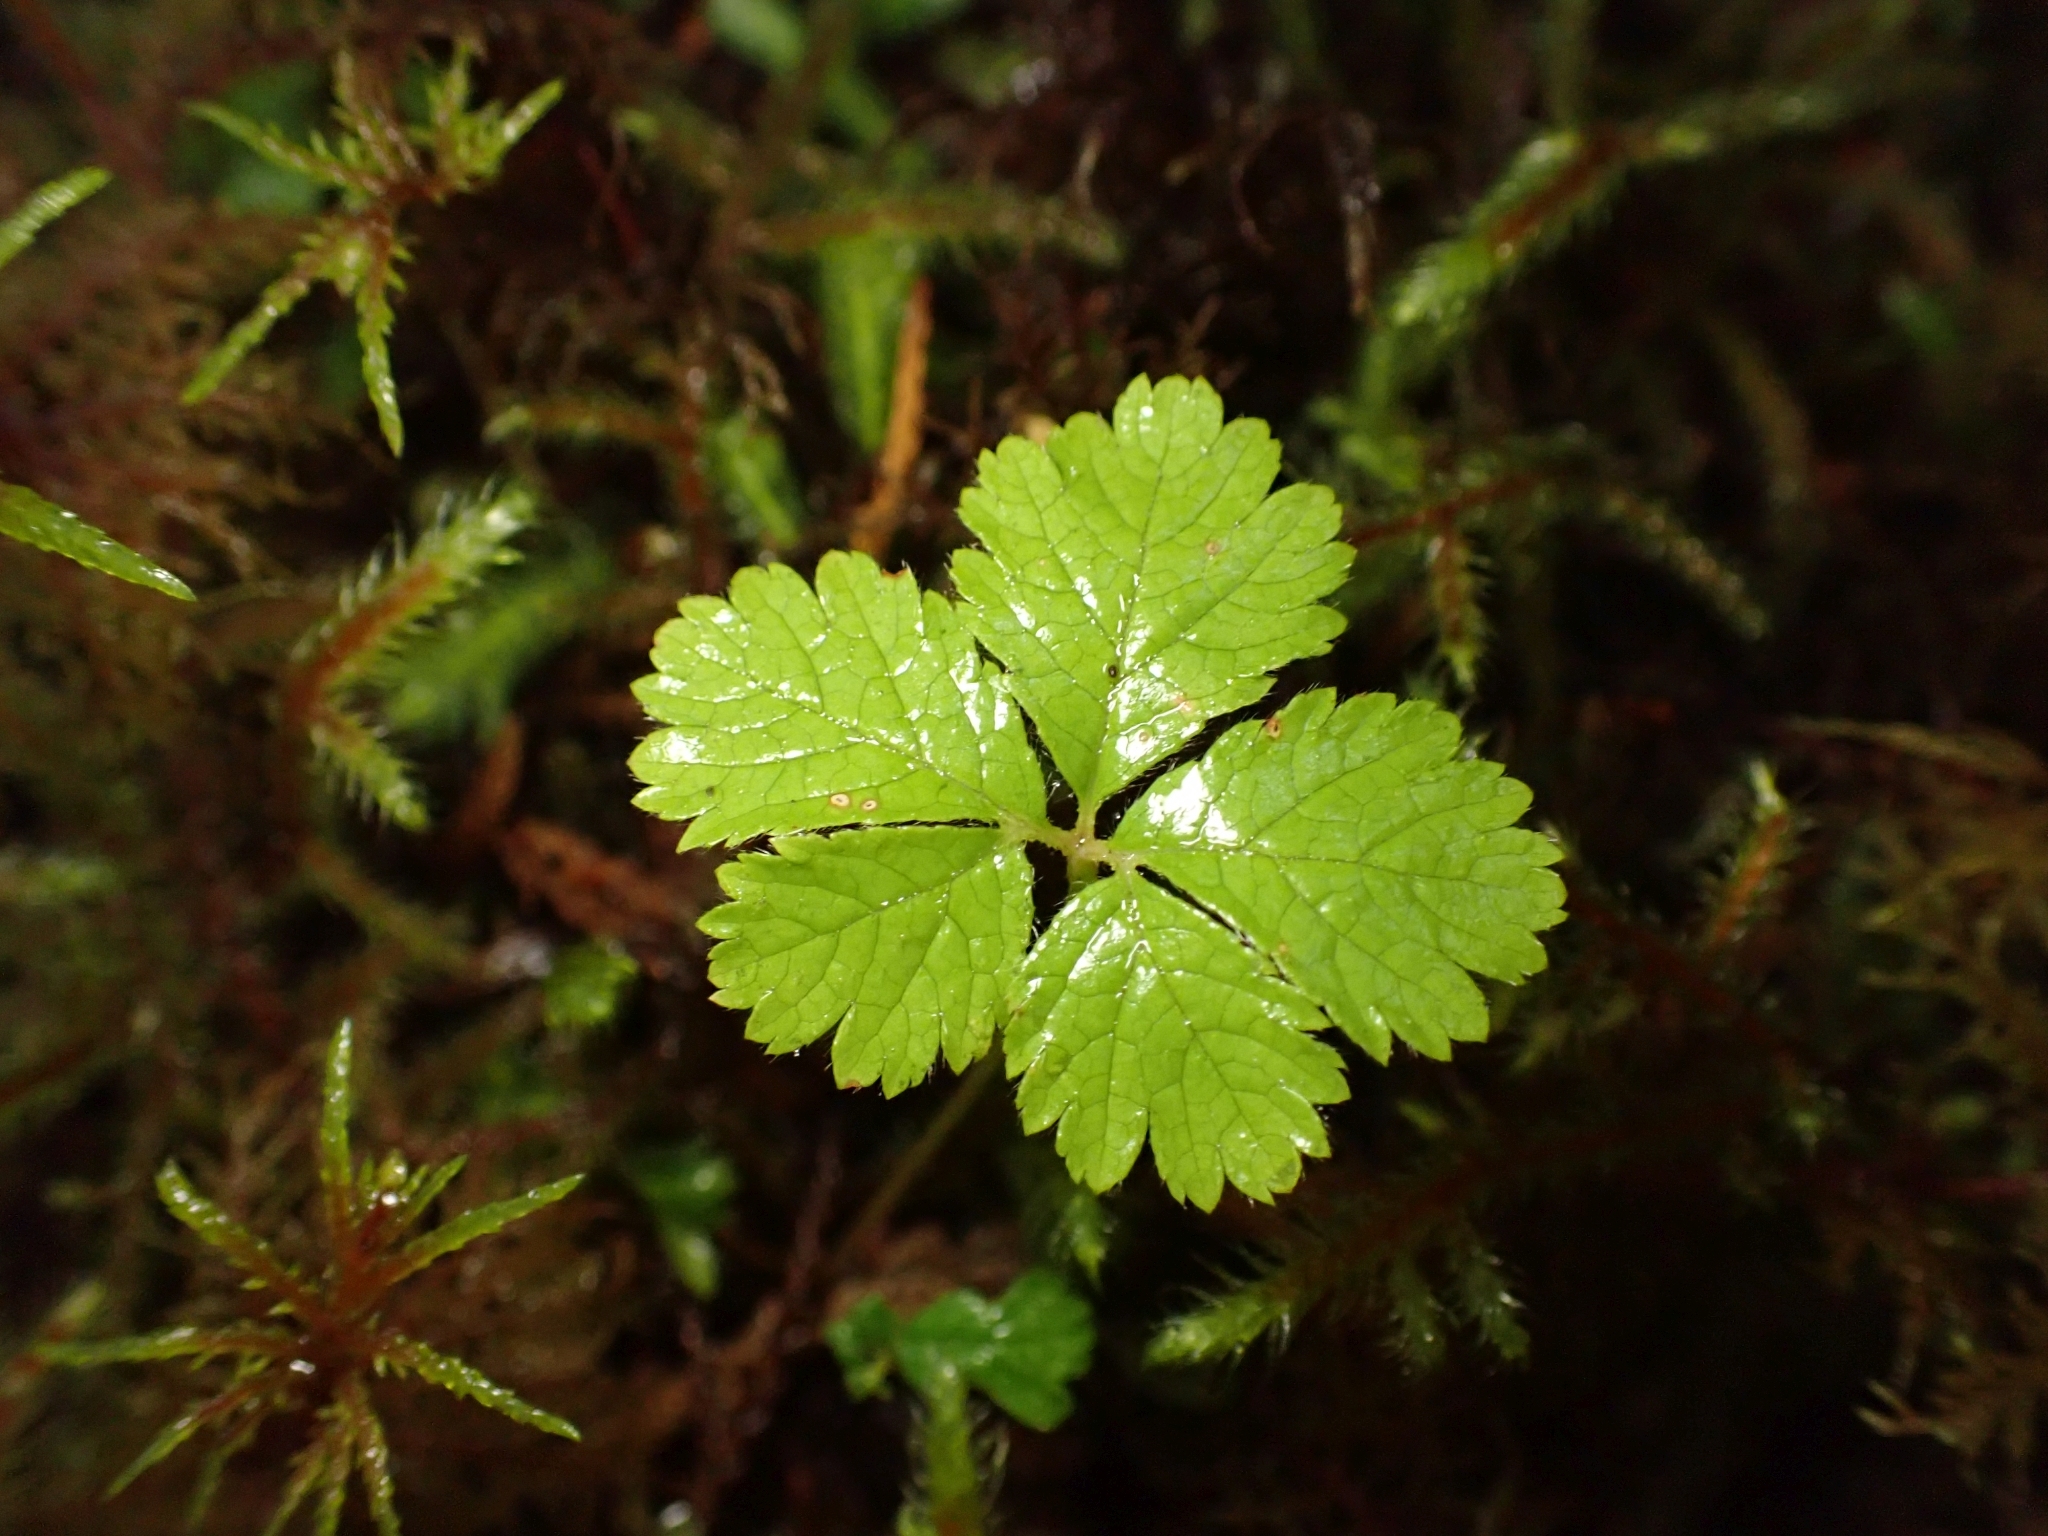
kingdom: Plantae
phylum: Tracheophyta
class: Magnoliopsida
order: Rosales
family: Rosaceae
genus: Rubus
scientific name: Rubus pedatus
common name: Creeping raspberry
